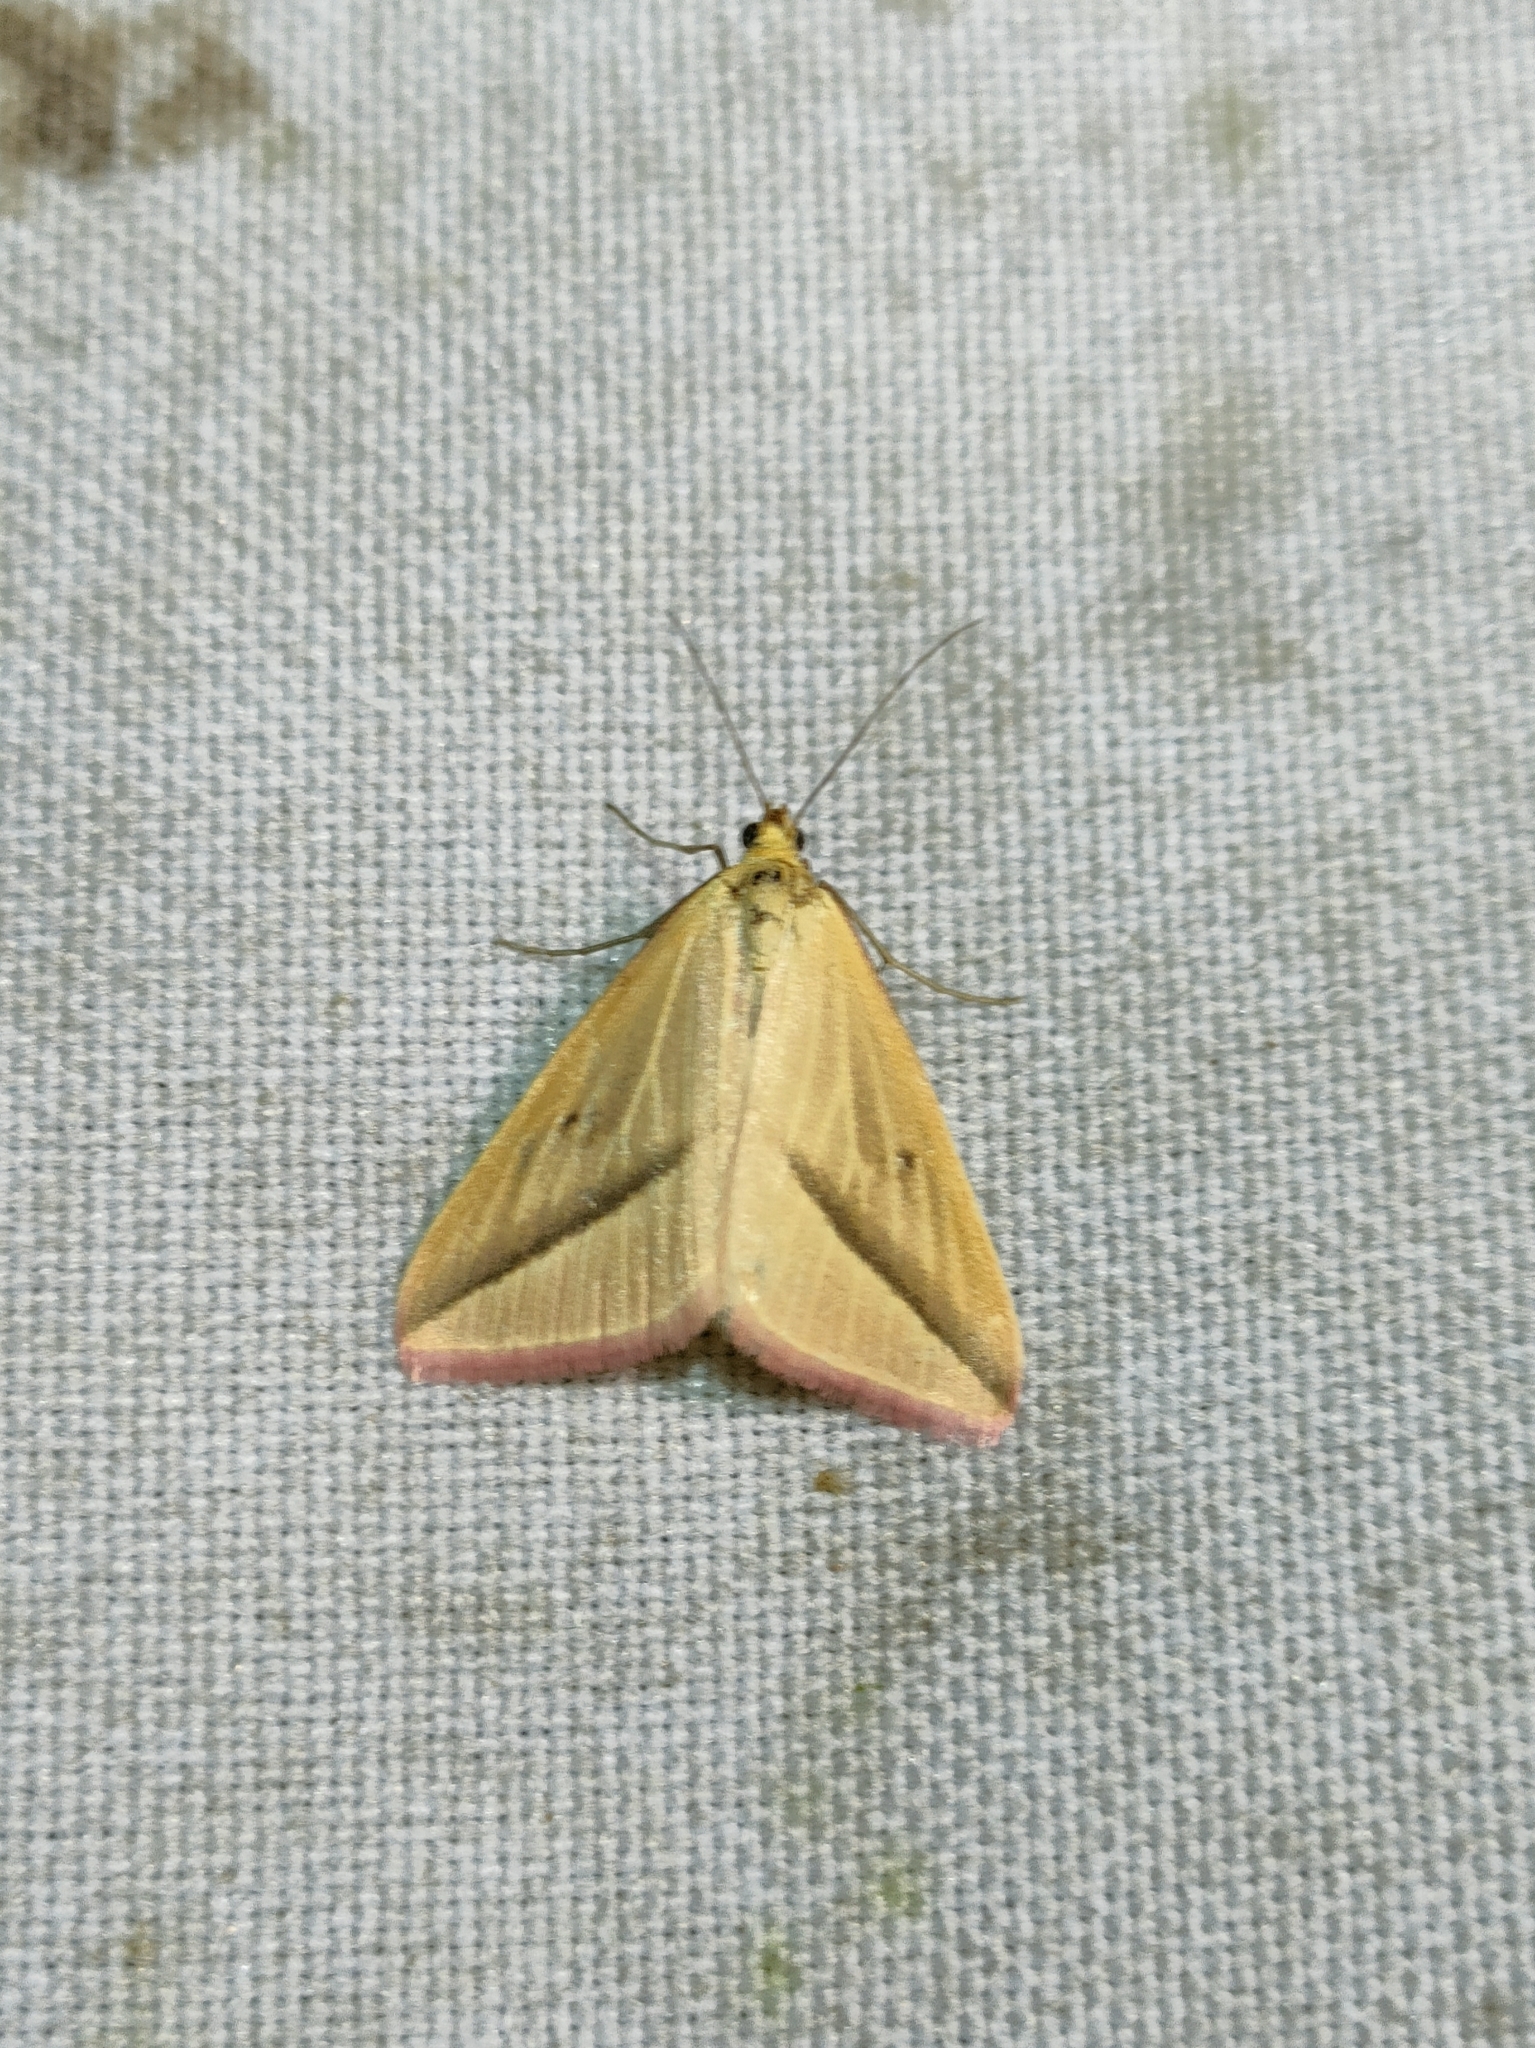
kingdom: Animalia
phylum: Arthropoda
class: Insecta
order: Lepidoptera
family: Geometridae
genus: Rhodometra
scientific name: Rhodometra sacraria
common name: Vestal
